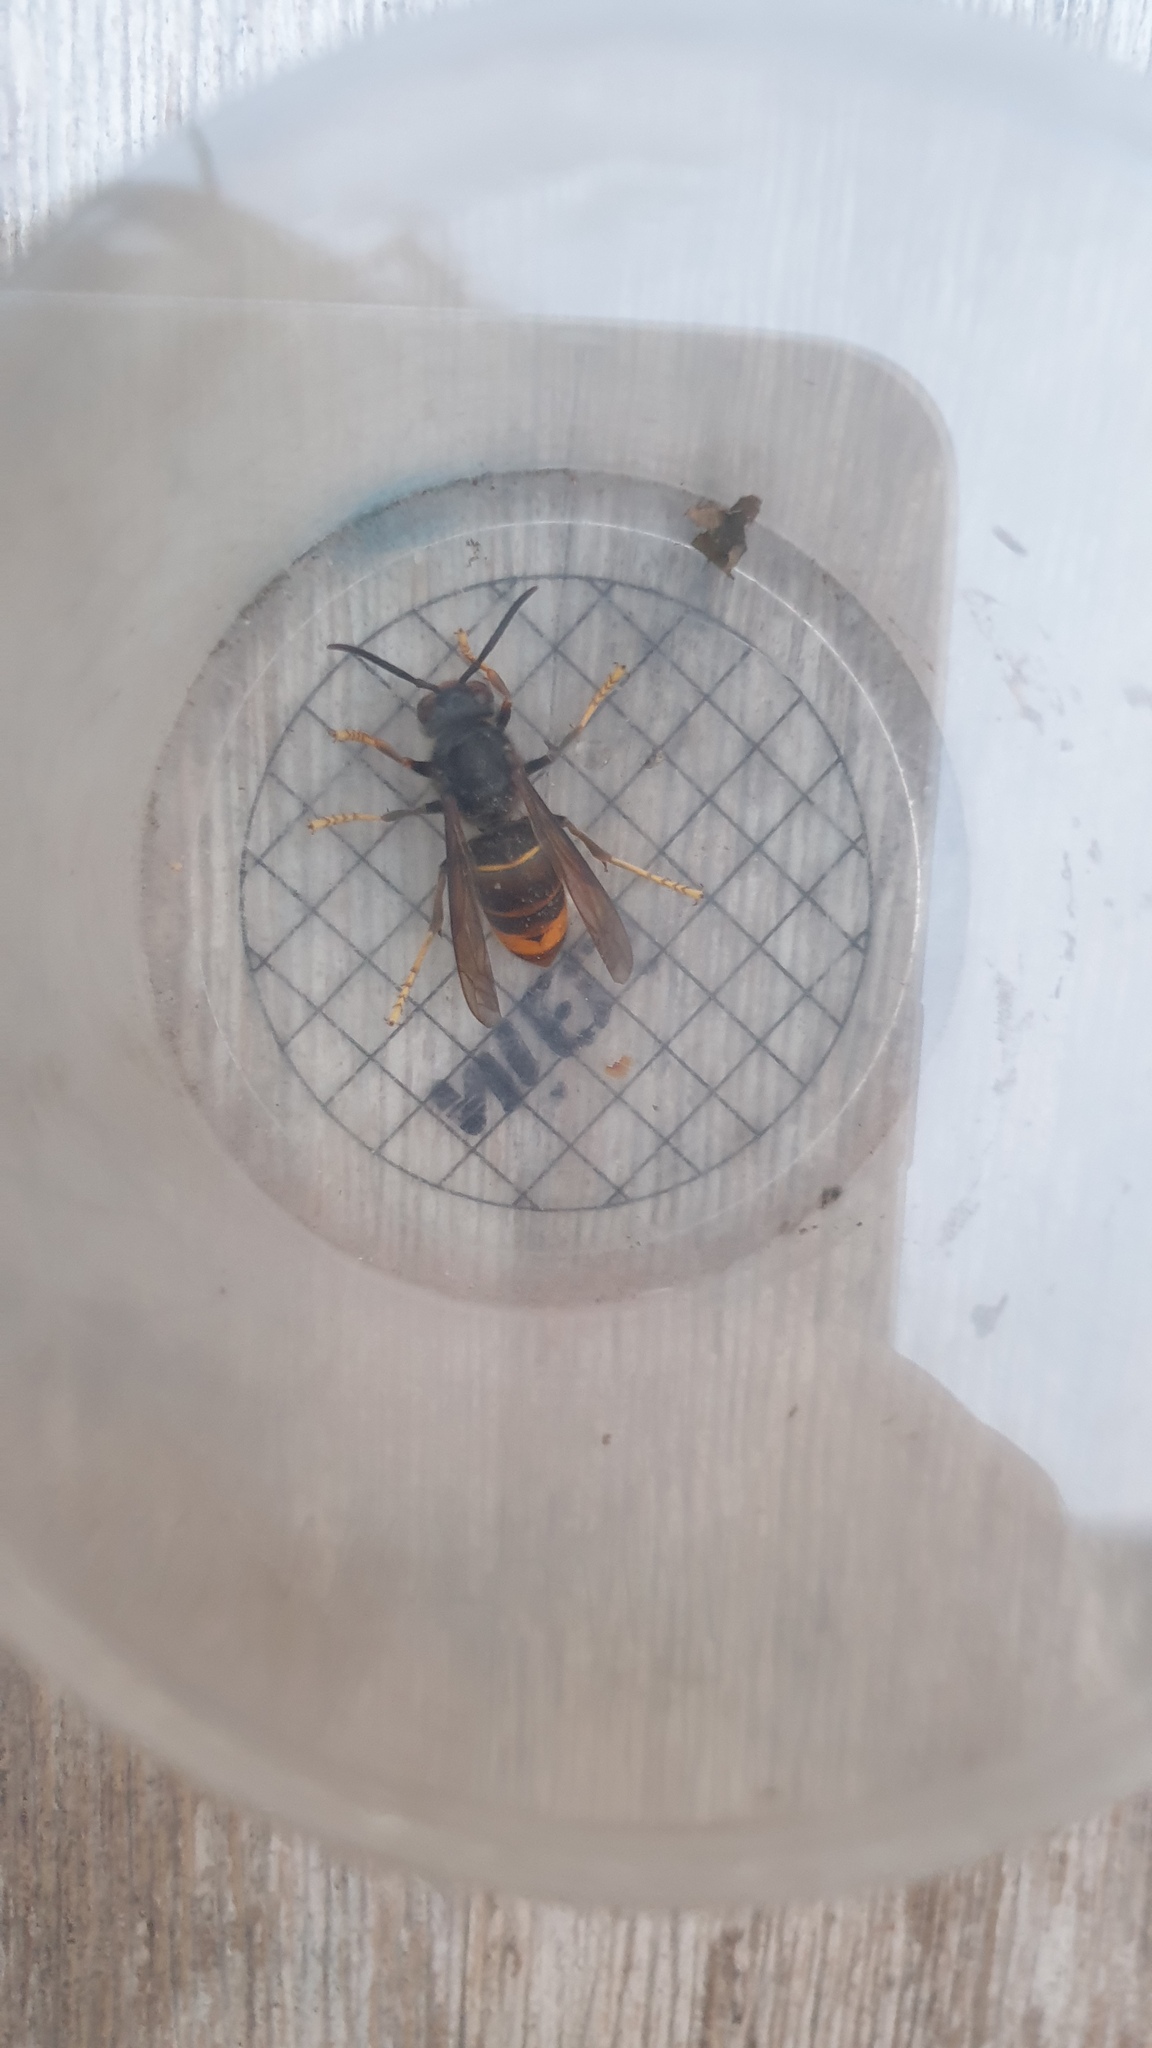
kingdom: Animalia
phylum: Arthropoda
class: Insecta
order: Hymenoptera
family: Vespidae
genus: Vespa
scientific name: Vespa velutina
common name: Asian hornet
